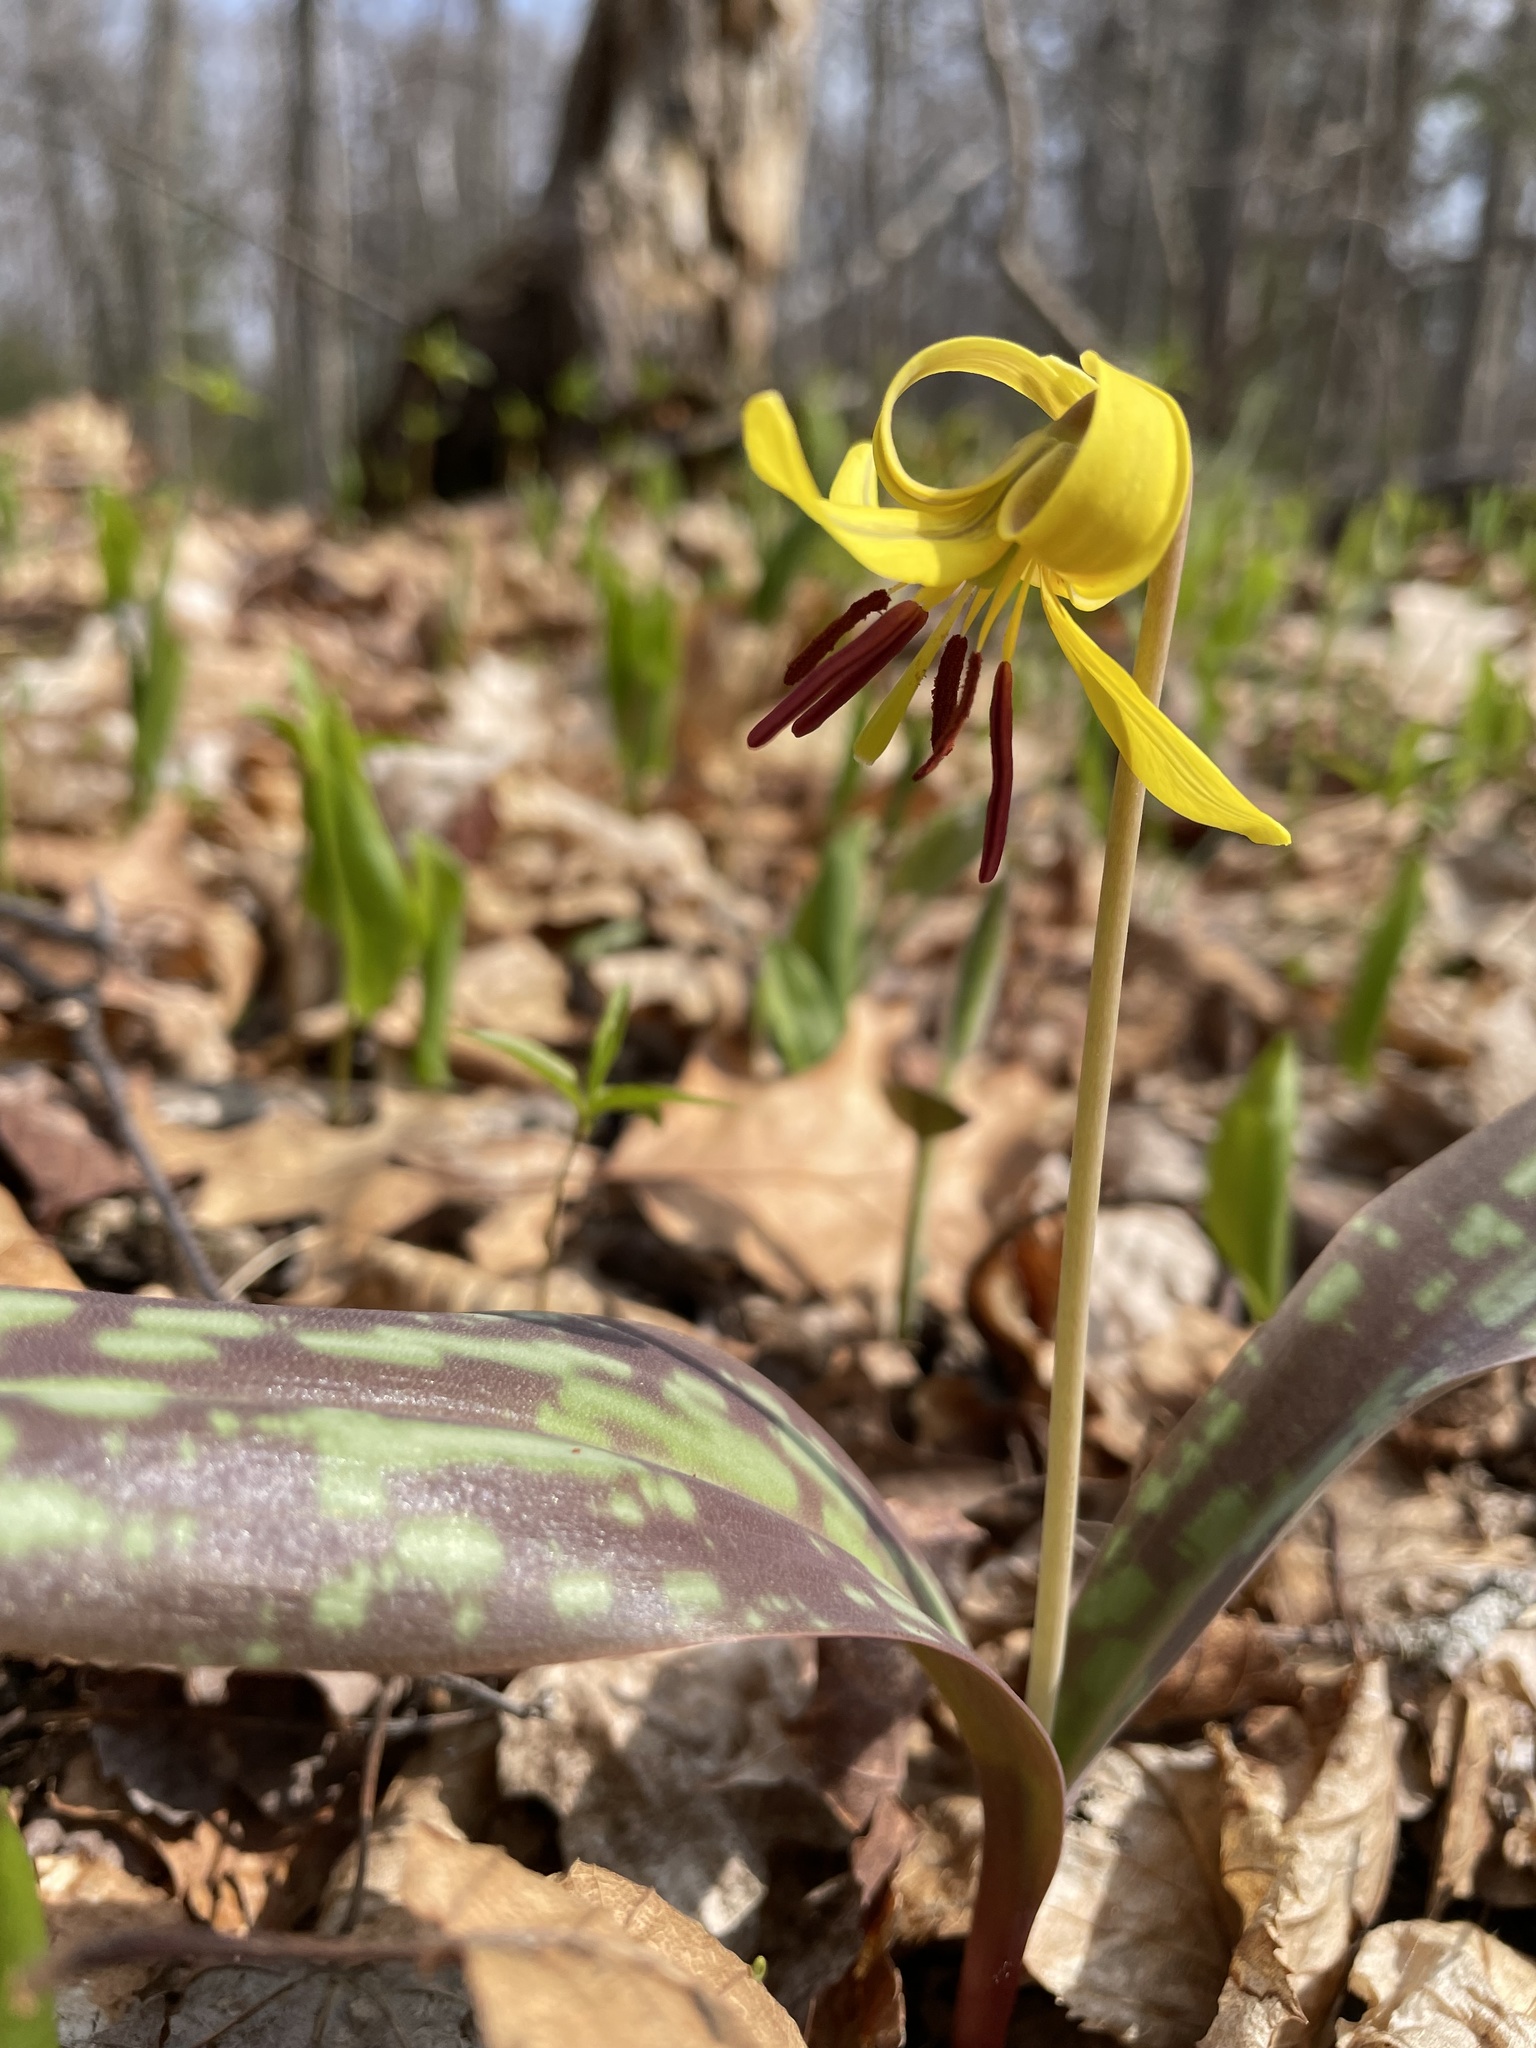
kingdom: Plantae
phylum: Tracheophyta
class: Liliopsida
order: Liliales
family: Liliaceae
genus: Erythronium
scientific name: Erythronium americanum
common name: Yellow adder's-tongue
